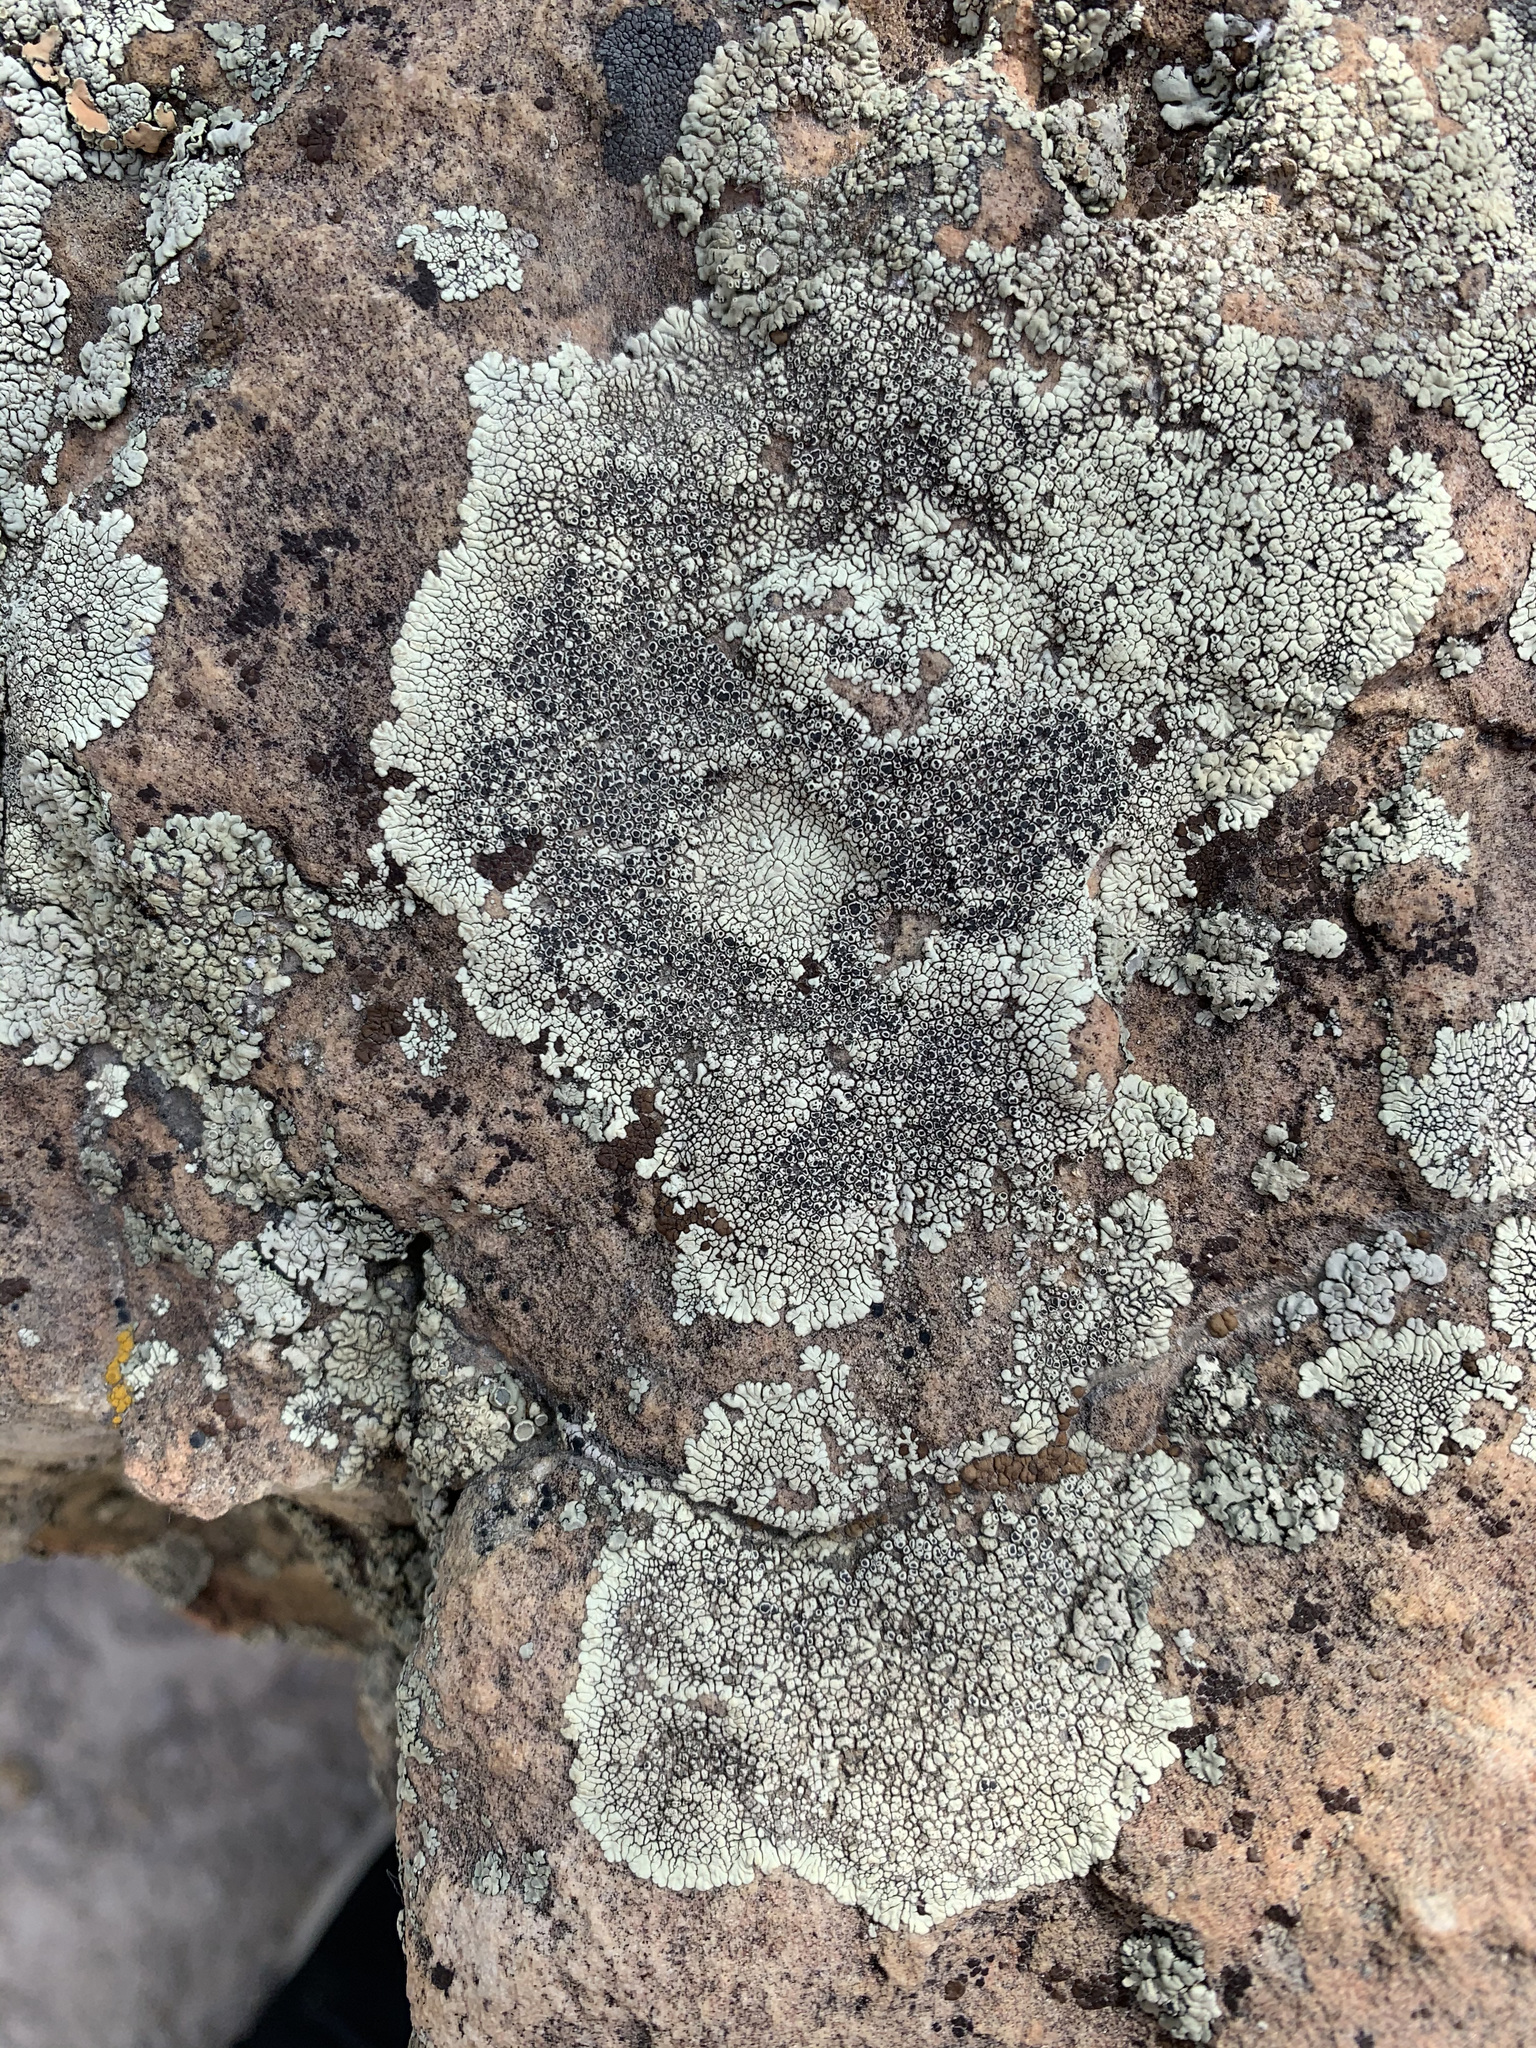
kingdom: Fungi
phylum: Ascomycota
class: Lecanoromycetes
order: Caliciales
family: Caliciaceae
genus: Dimelaena
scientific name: Dimelaena oreina
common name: Golden moonglow lichen
